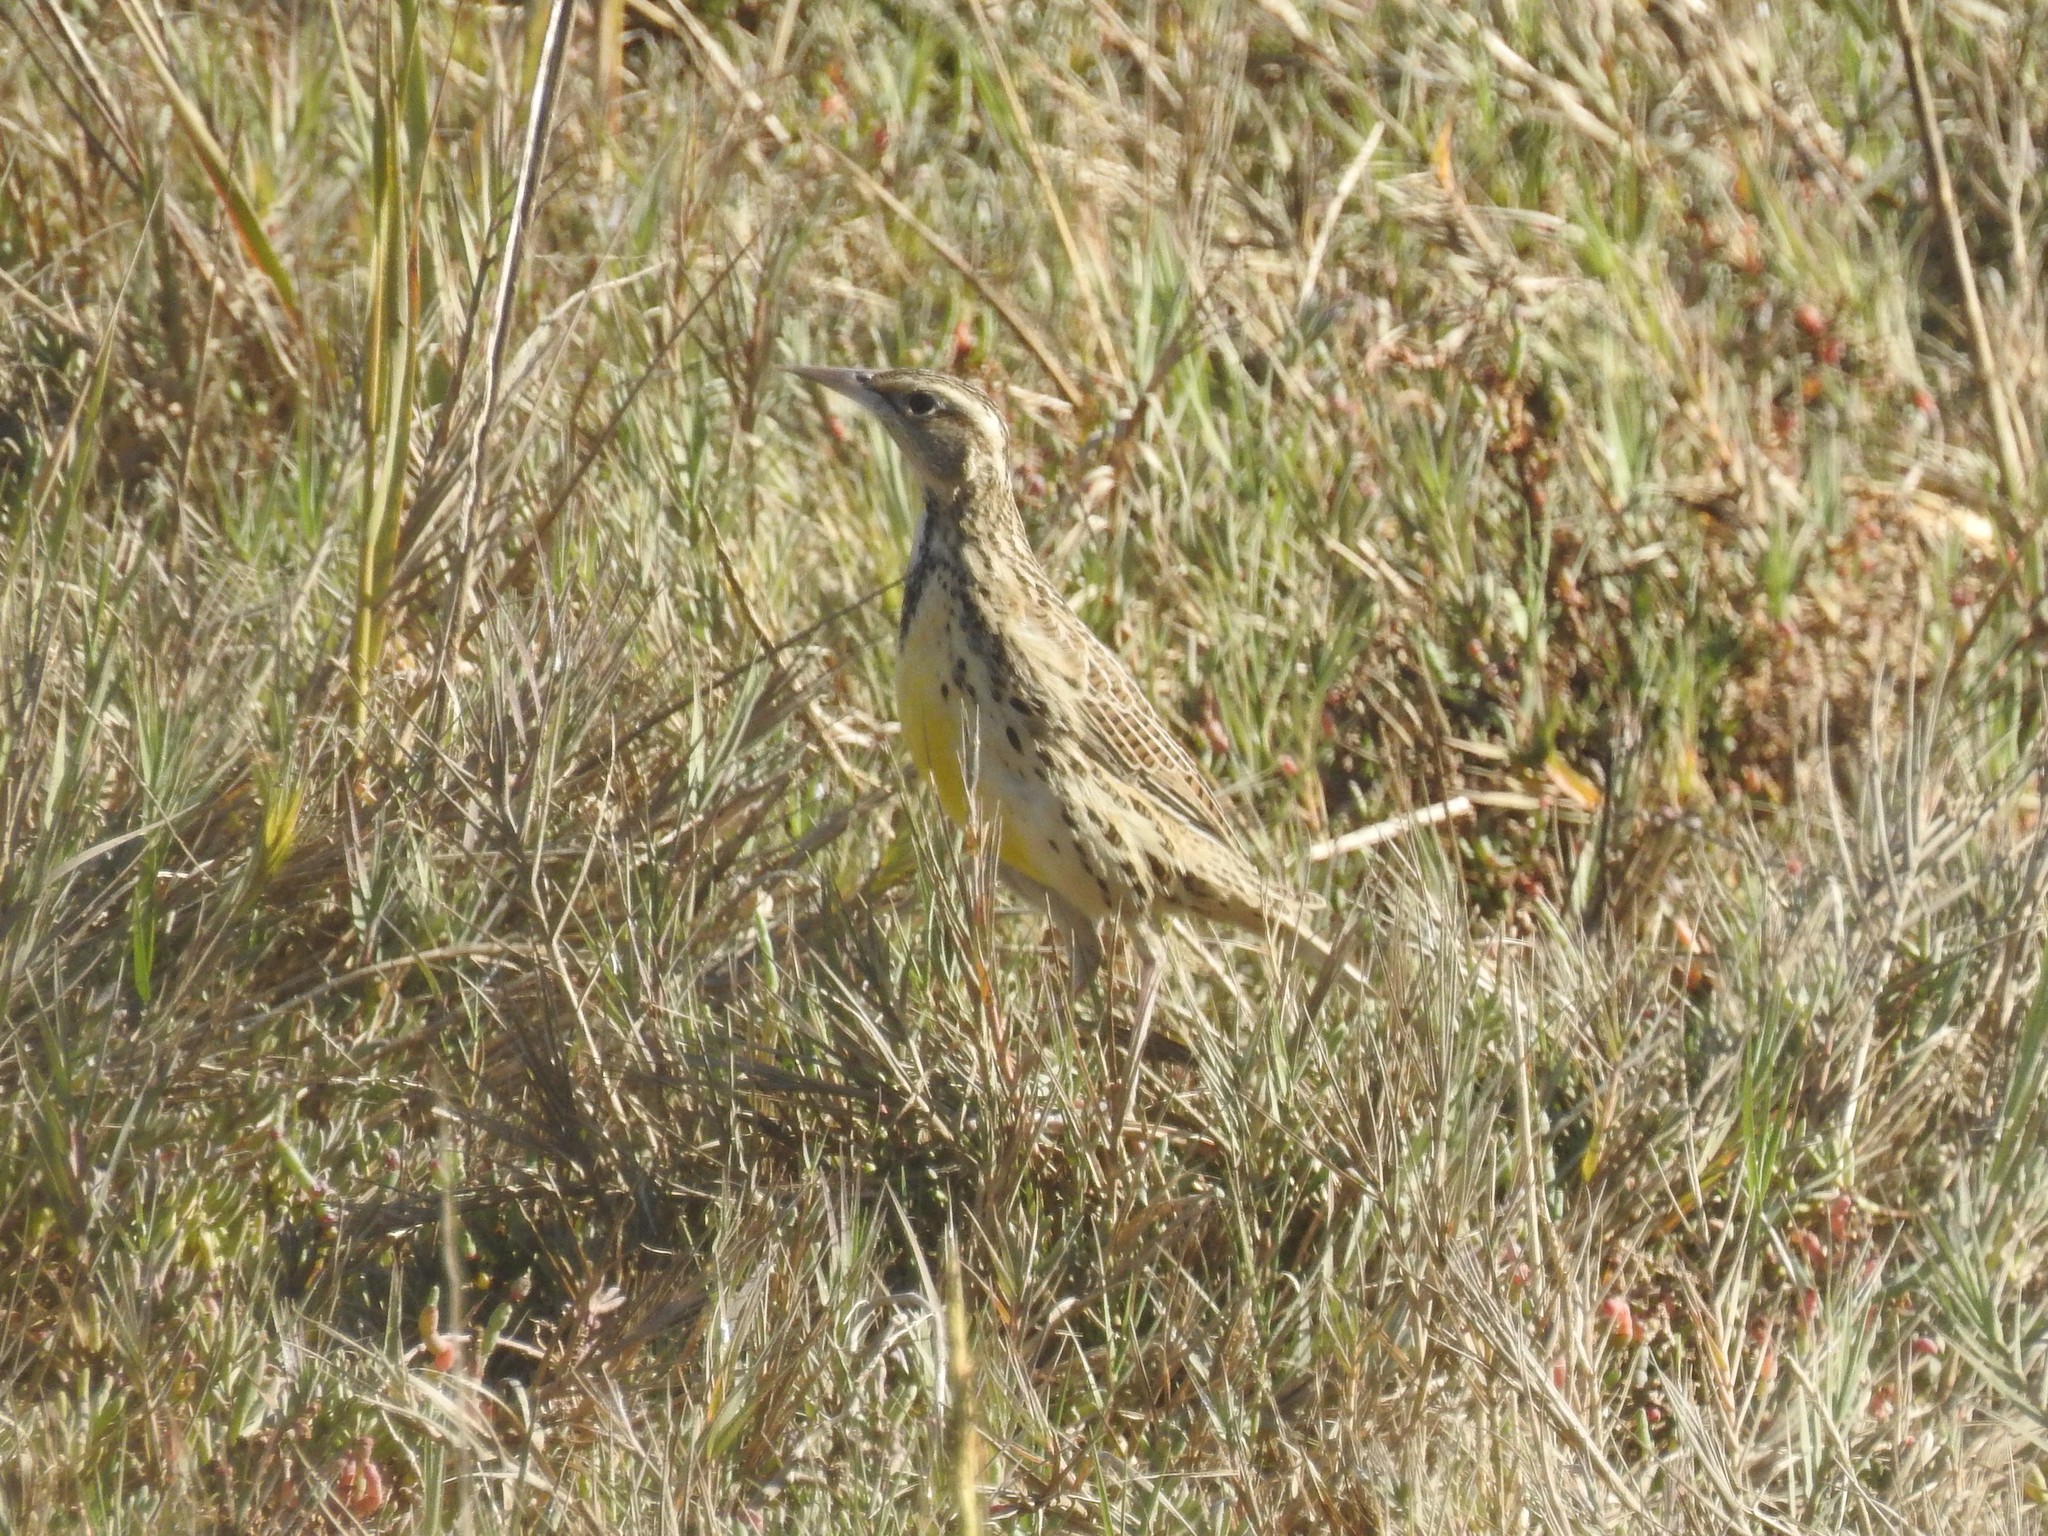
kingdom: Animalia
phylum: Chordata
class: Aves
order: Passeriformes
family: Icteridae
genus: Sturnella
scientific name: Sturnella neglecta
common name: Western meadowlark
